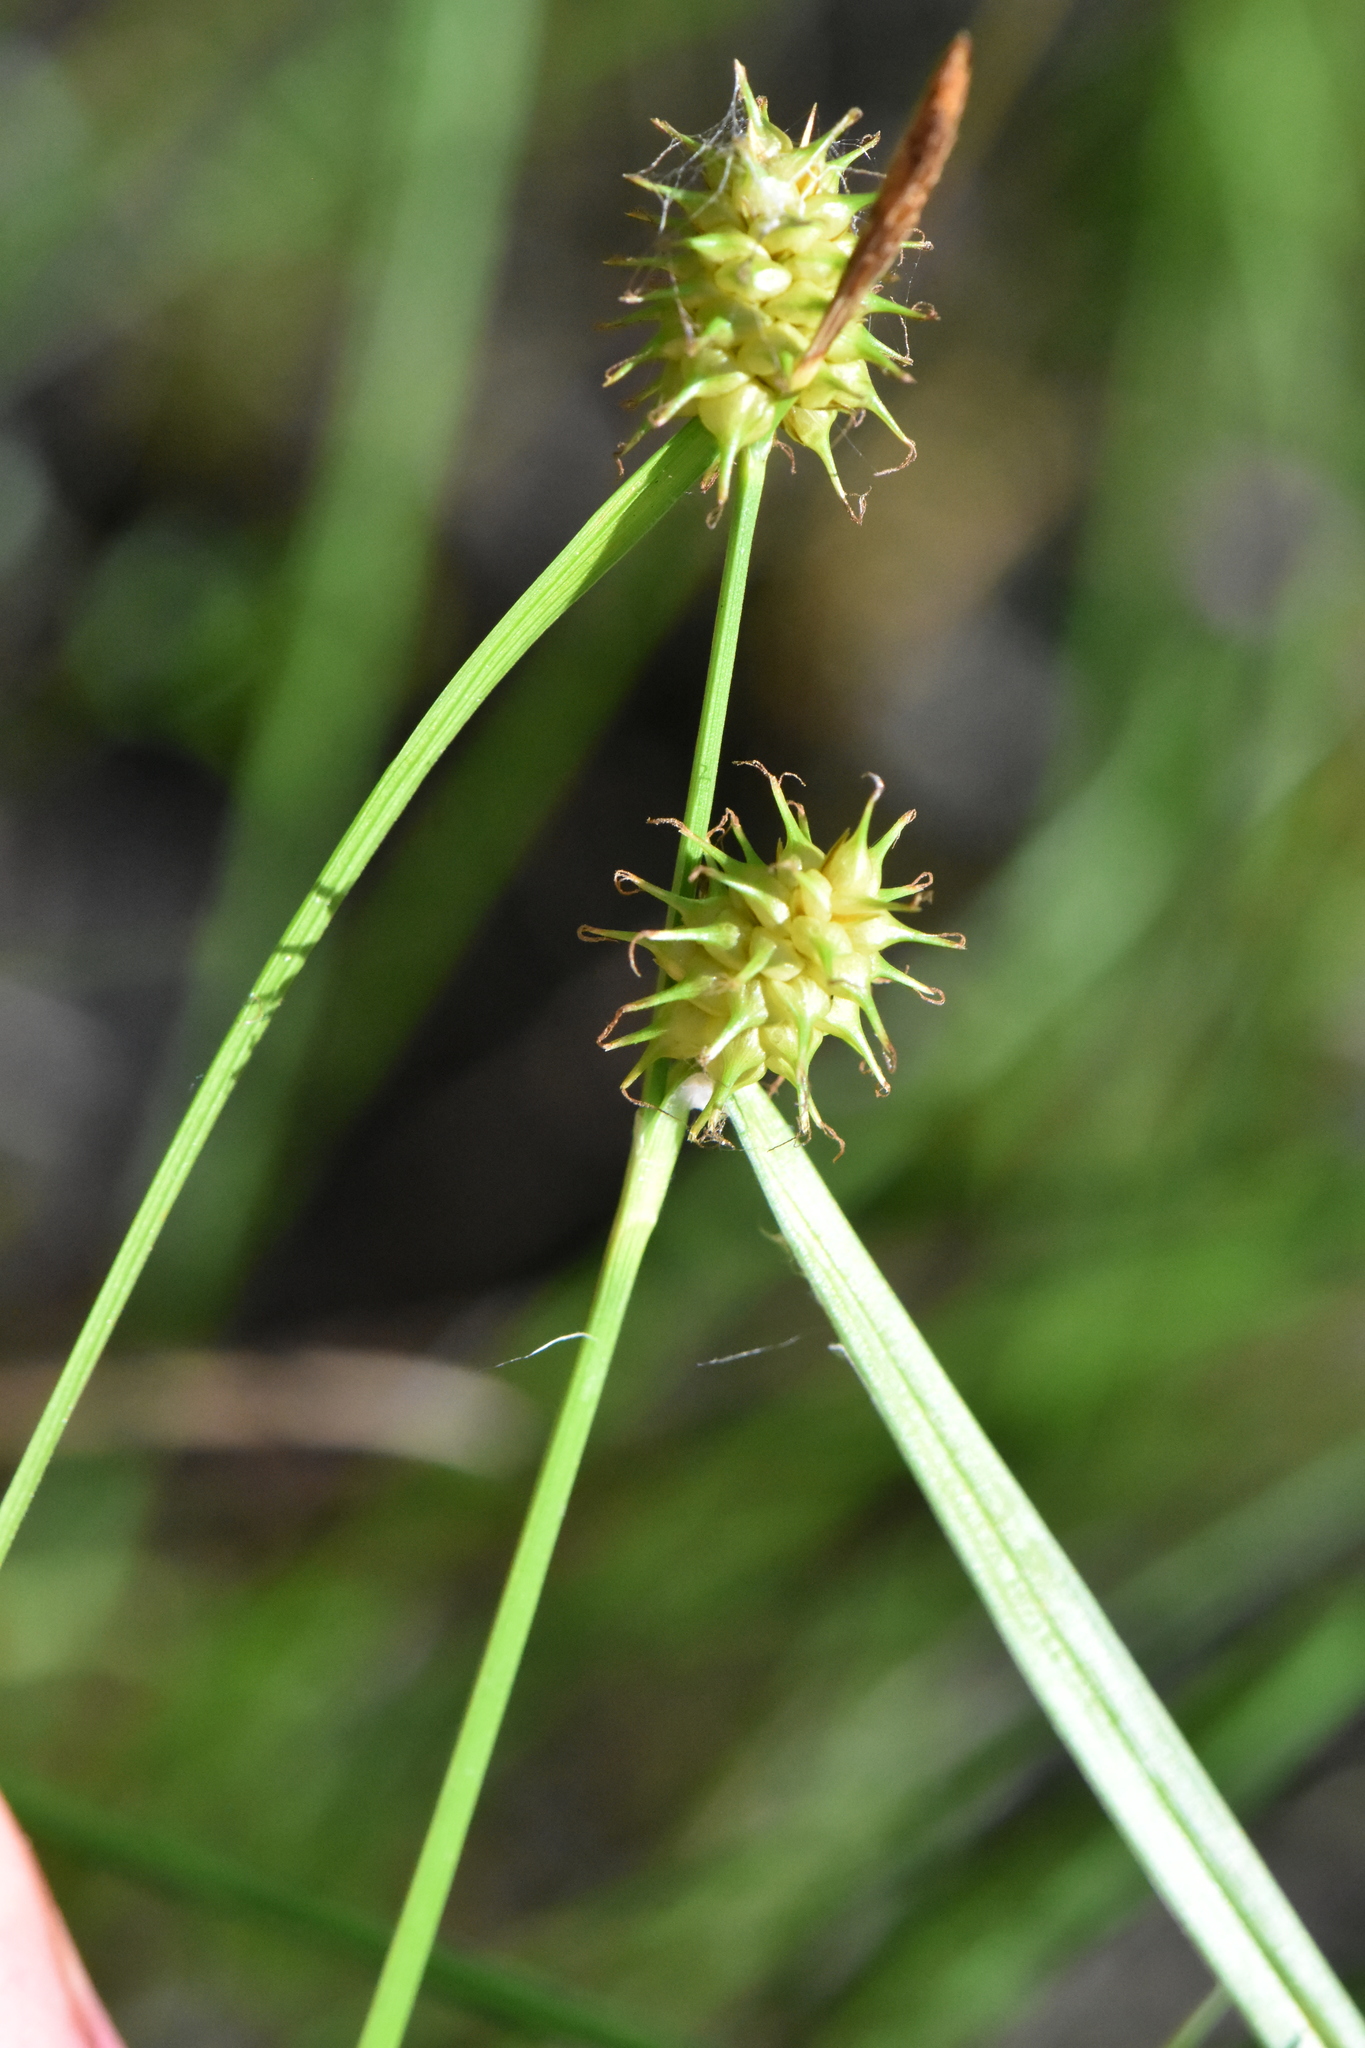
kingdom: Plantae
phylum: Tracheophyta
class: Liliopsida
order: Poales
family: Cyperaceae
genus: Carex
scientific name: Carex flava
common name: Large yellow-sedge
